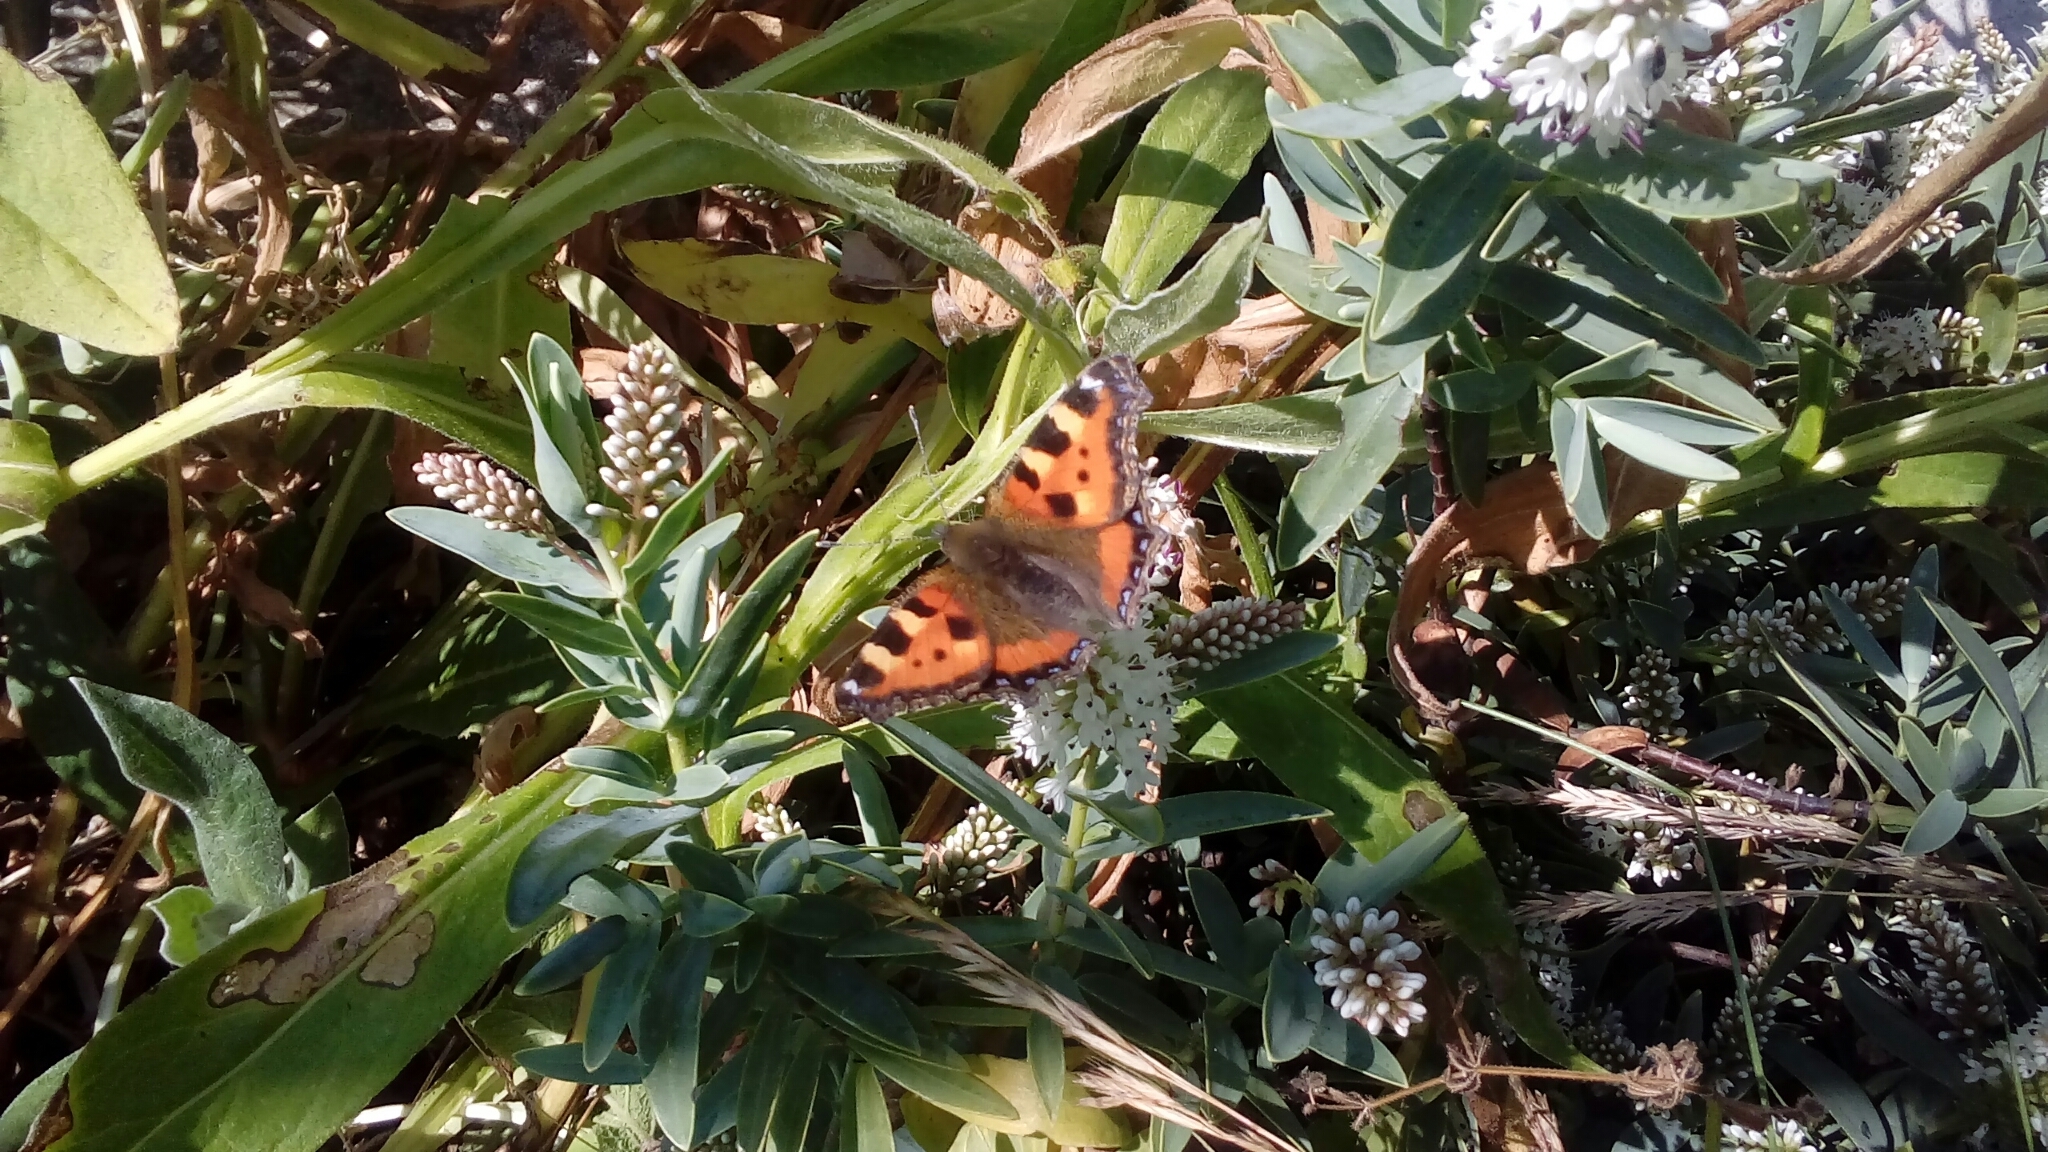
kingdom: Animalia
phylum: Arthropoda
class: Insecta
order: Lepidoptera
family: Nymphalidae
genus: Aglais
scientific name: Aglais urticae
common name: Small tortoiseshell
